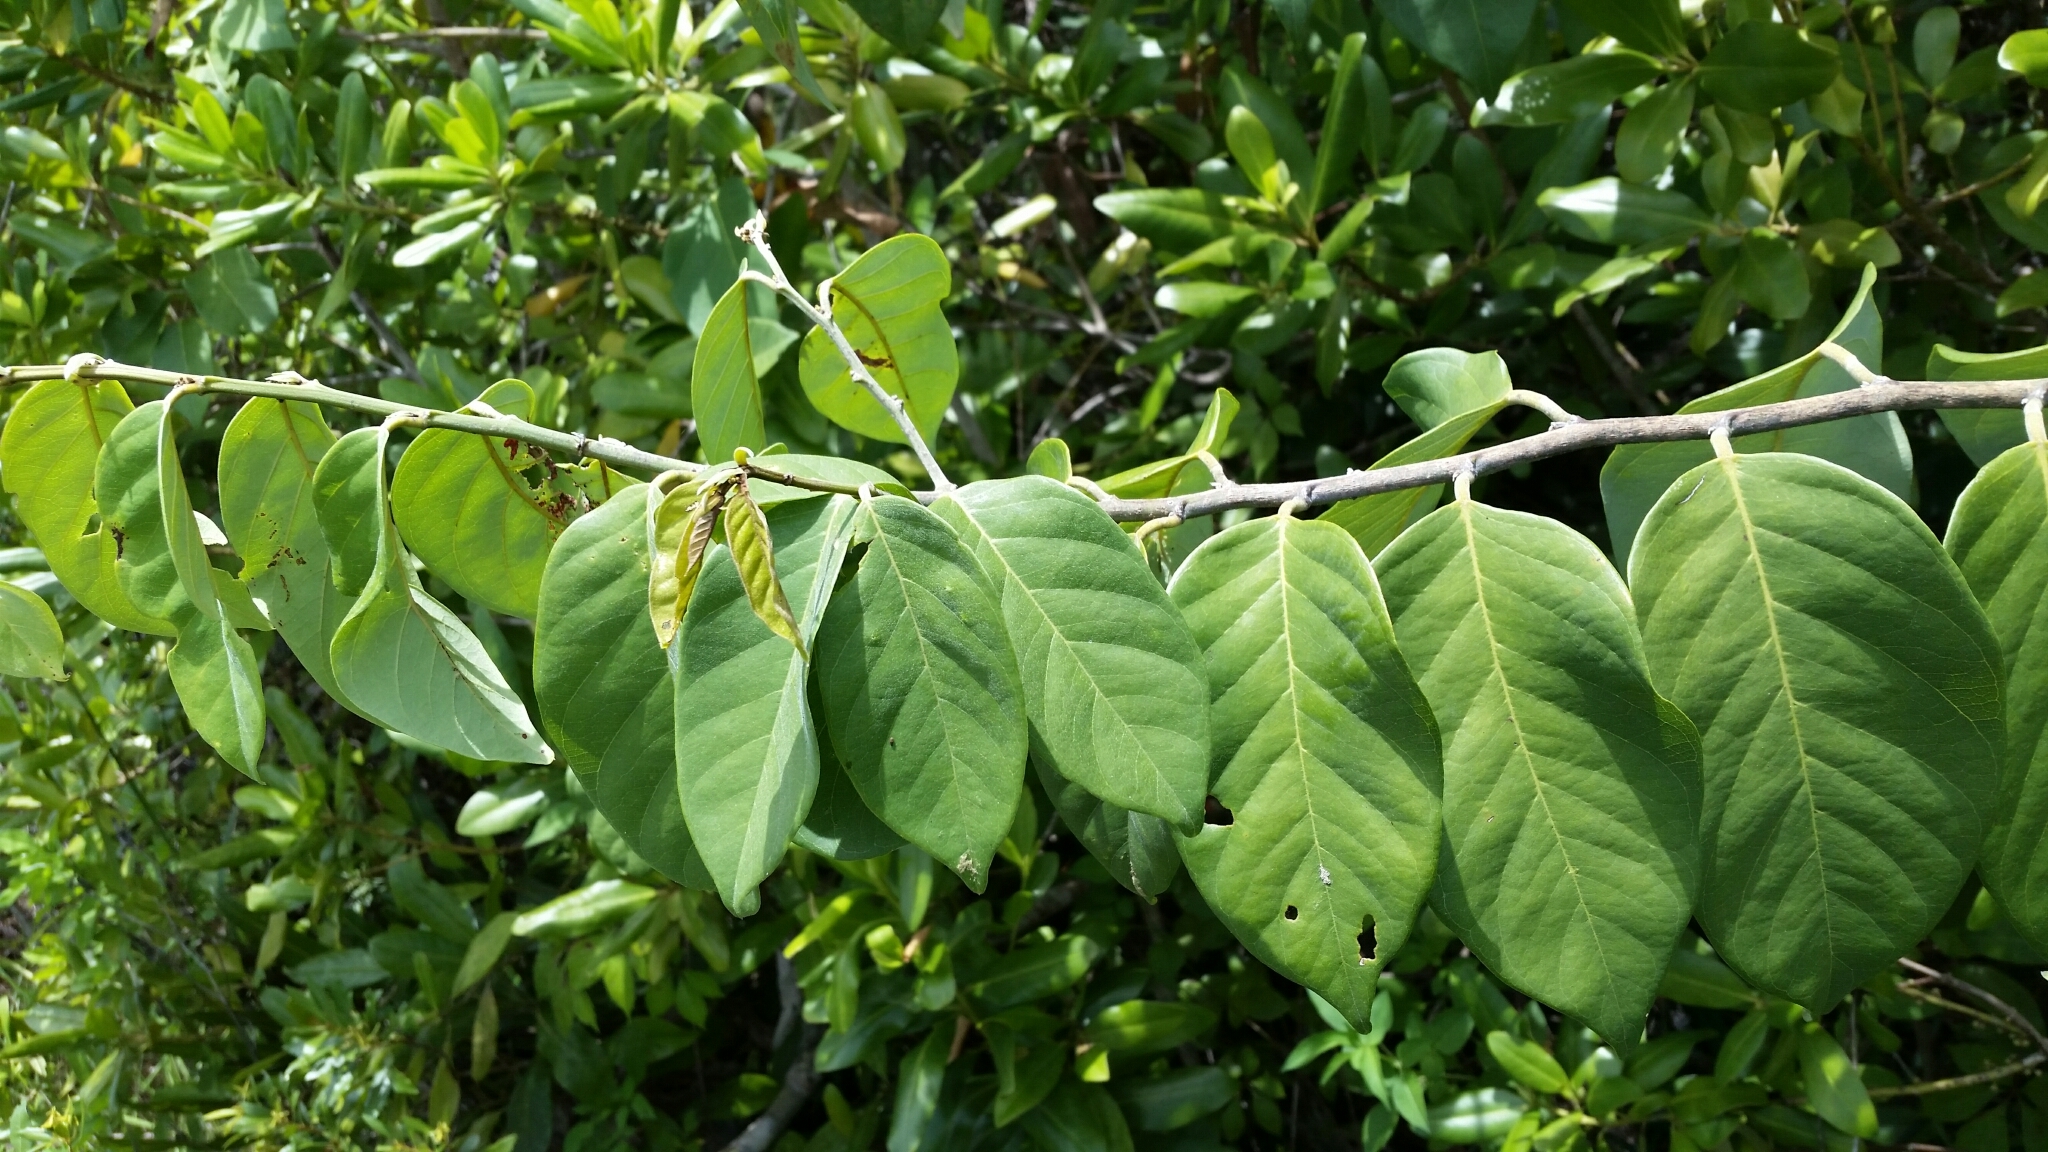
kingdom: Plantae
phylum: Tracheophyta
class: Magnoliopsida
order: Fabales
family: Fabaceae
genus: Dalbergia
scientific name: Dalbergia ecastaphyllum
